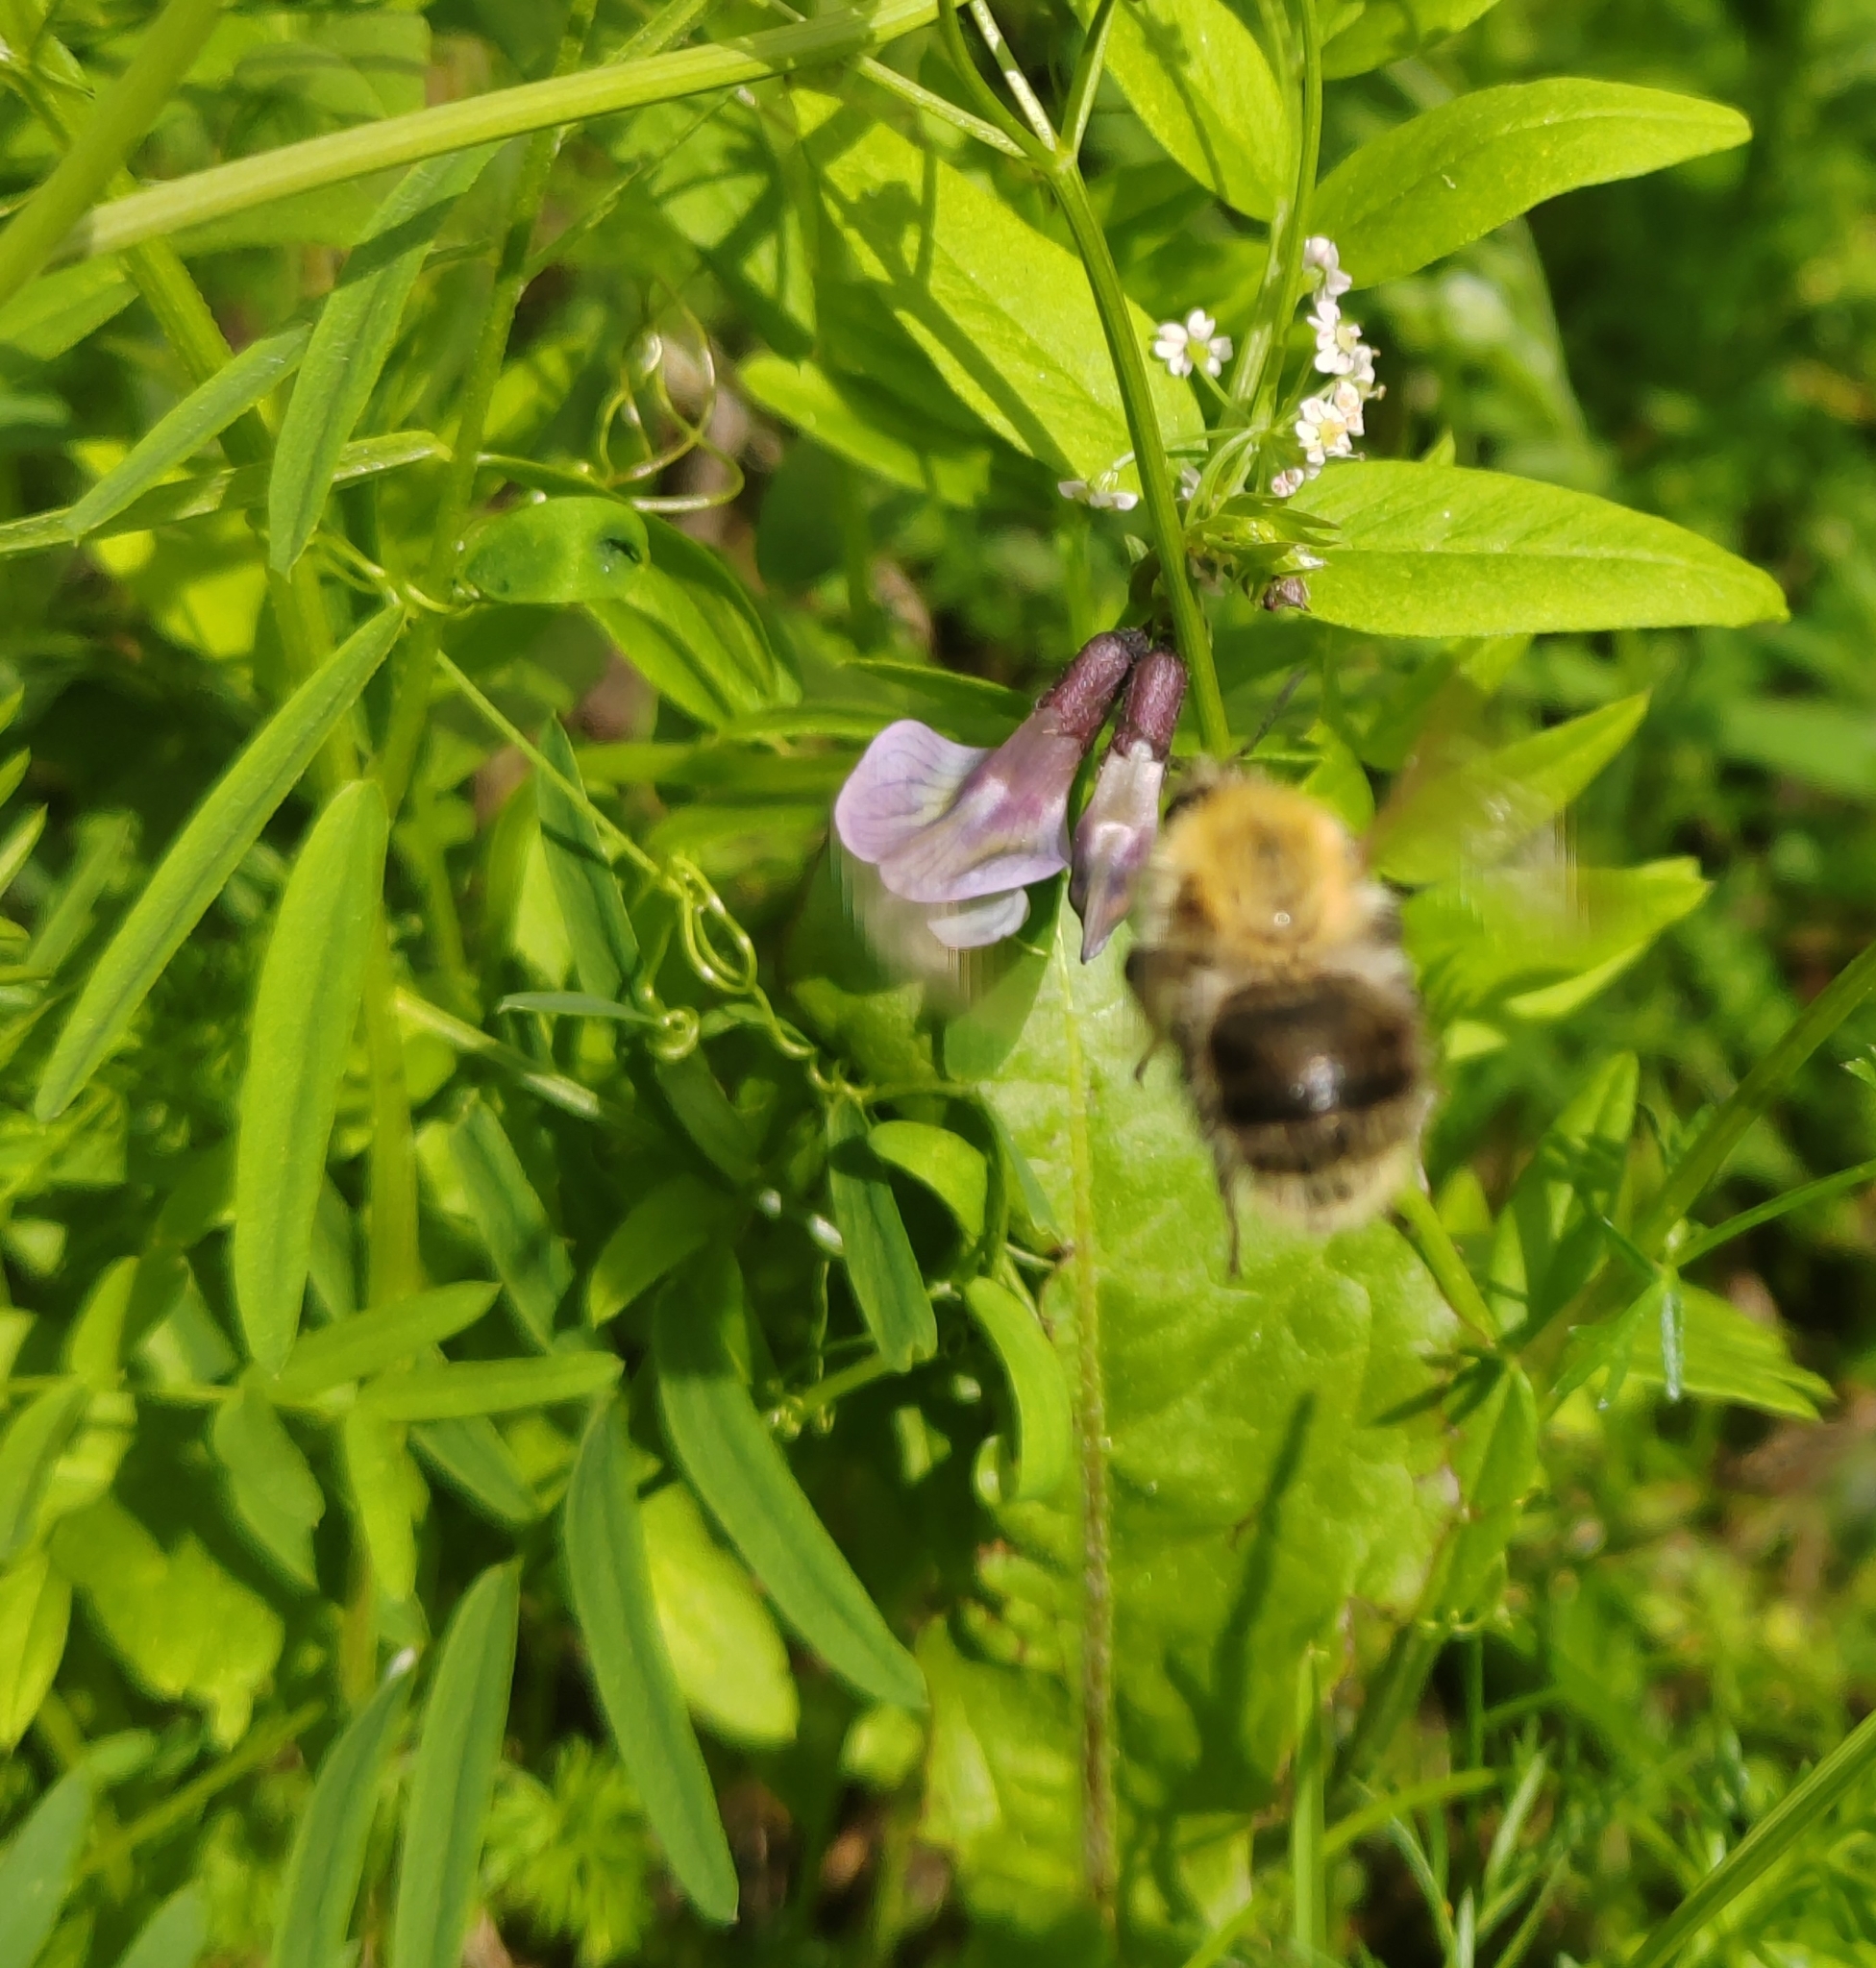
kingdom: Animalia
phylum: Arthropoda
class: Insecta
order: Hymenoptera
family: Apidae
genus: Bombus
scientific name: Bombus pascuorum
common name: Common carder bee
